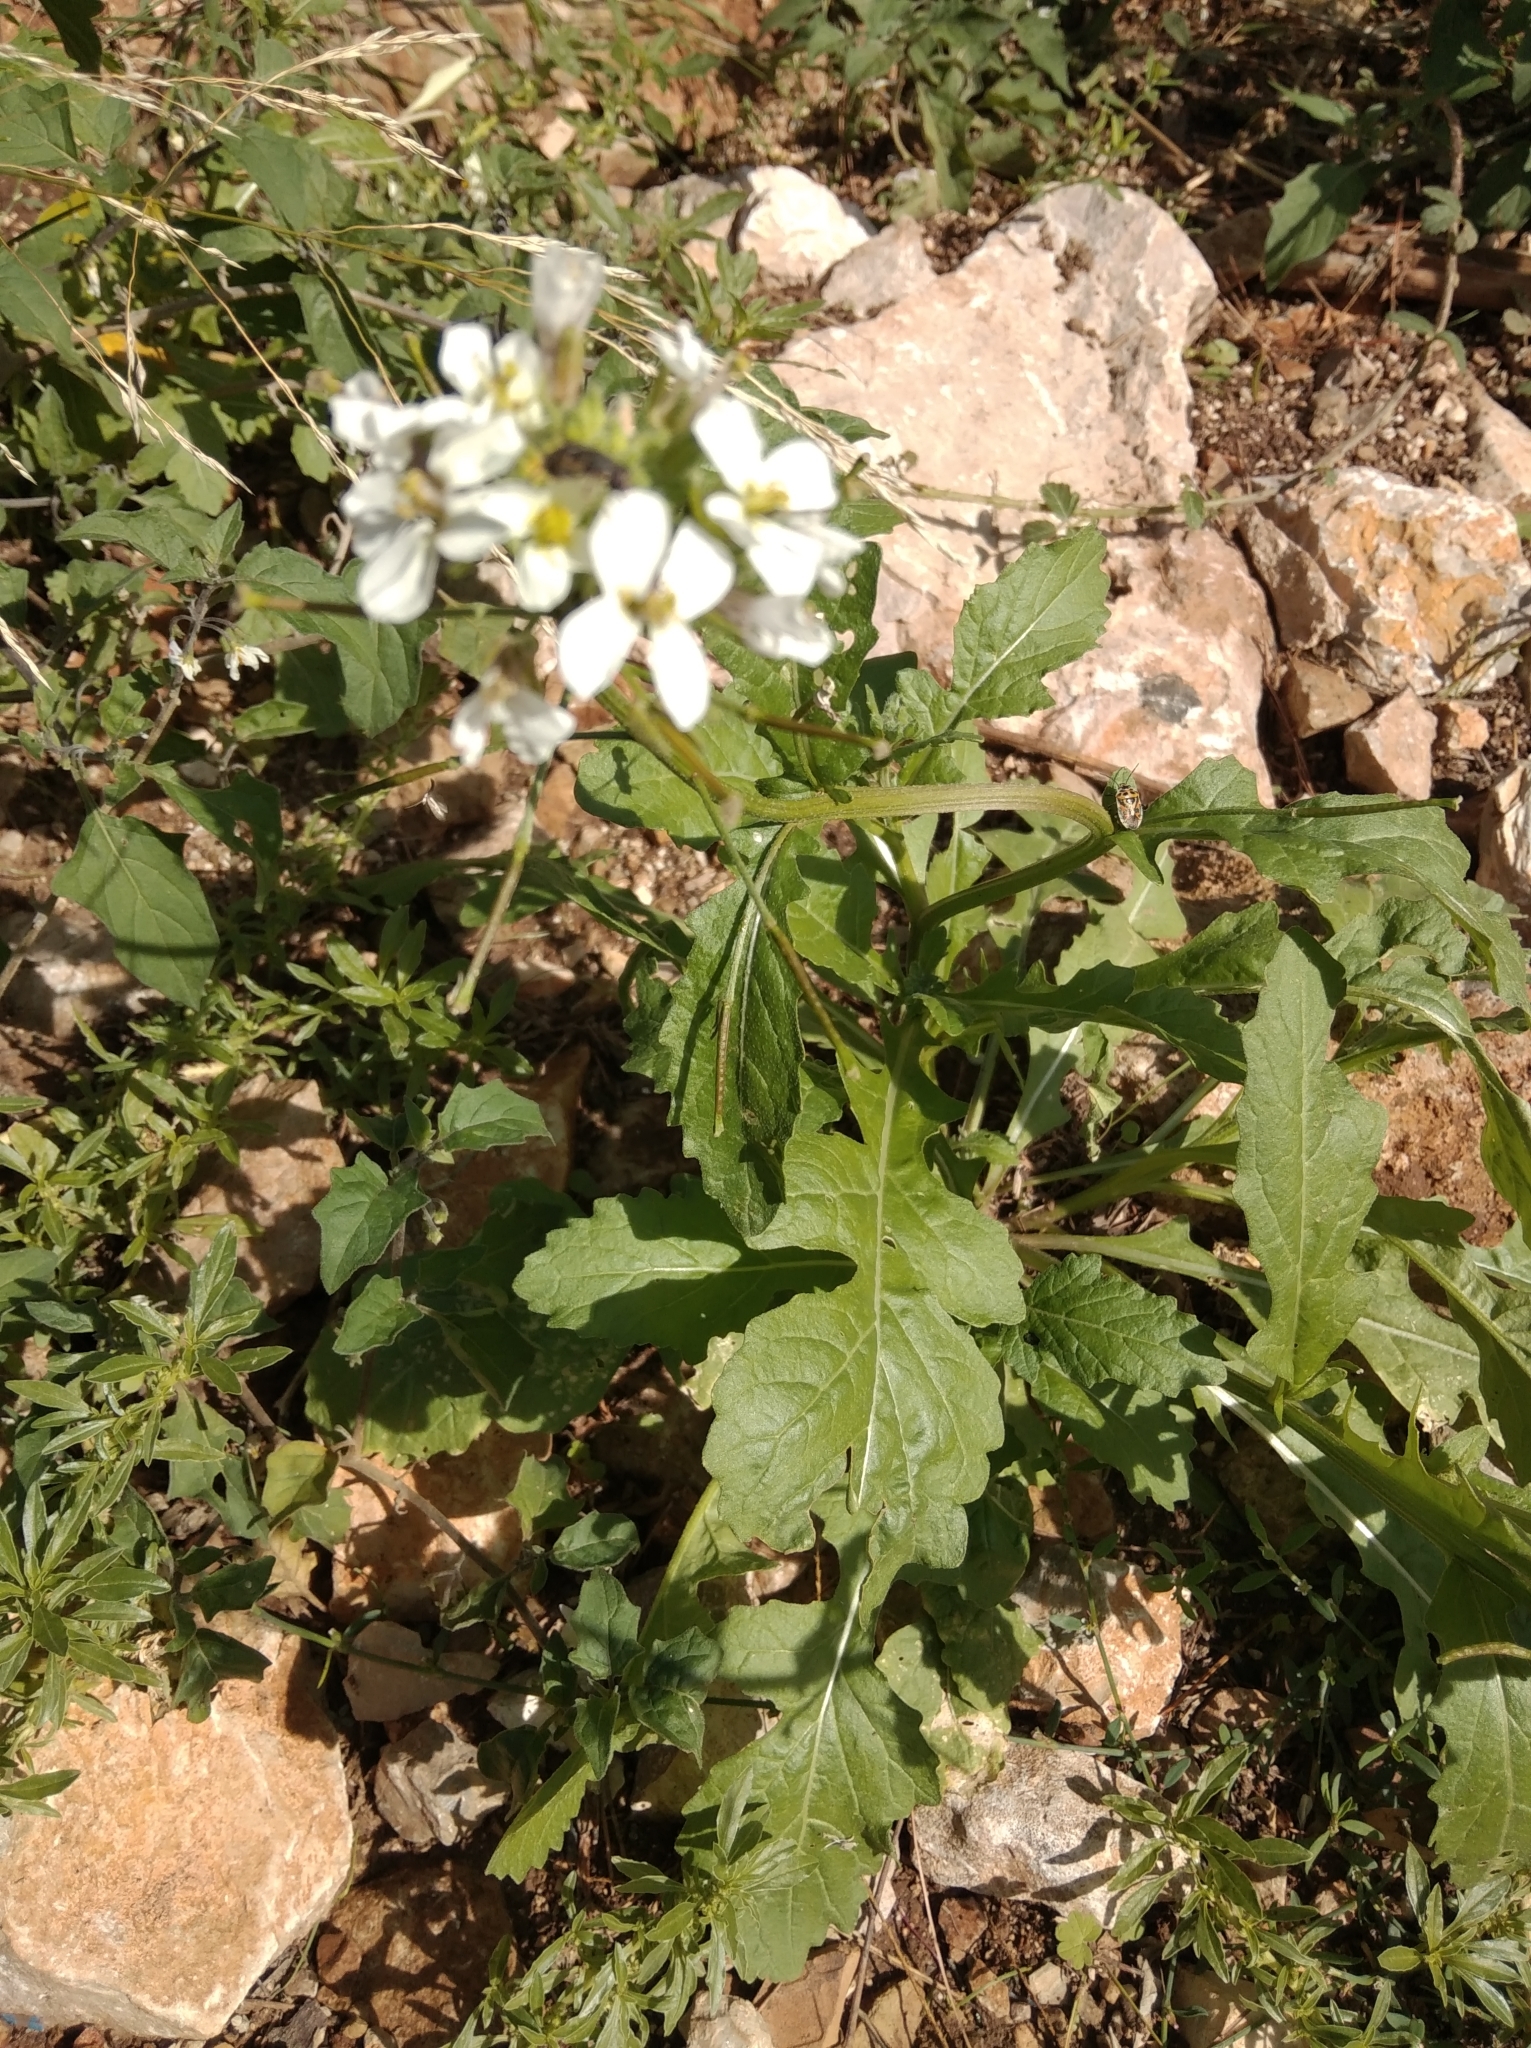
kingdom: Plantae
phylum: Tracheophyta
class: Magnoliopsida
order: Brassicales
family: Brassicaceae
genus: Diplotaxis
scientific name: Diplotaxis erucoides
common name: White rocket
